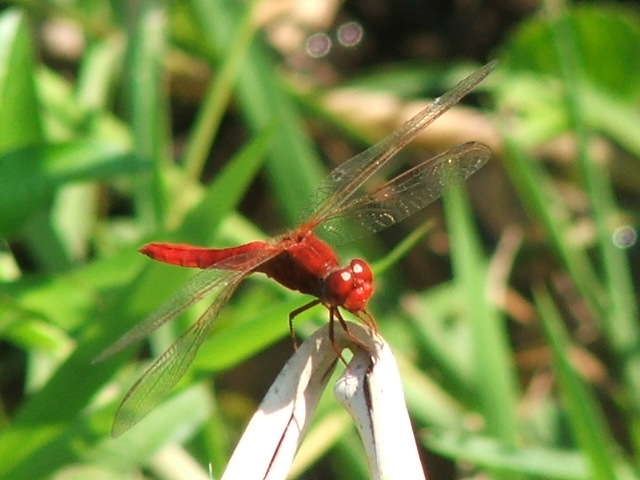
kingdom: Animalia
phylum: Arthropoda
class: Insecta
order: Odonata
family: Libellulidae
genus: Crocothemis
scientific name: Crocothemis erythraea
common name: Scarlet dragonfly
